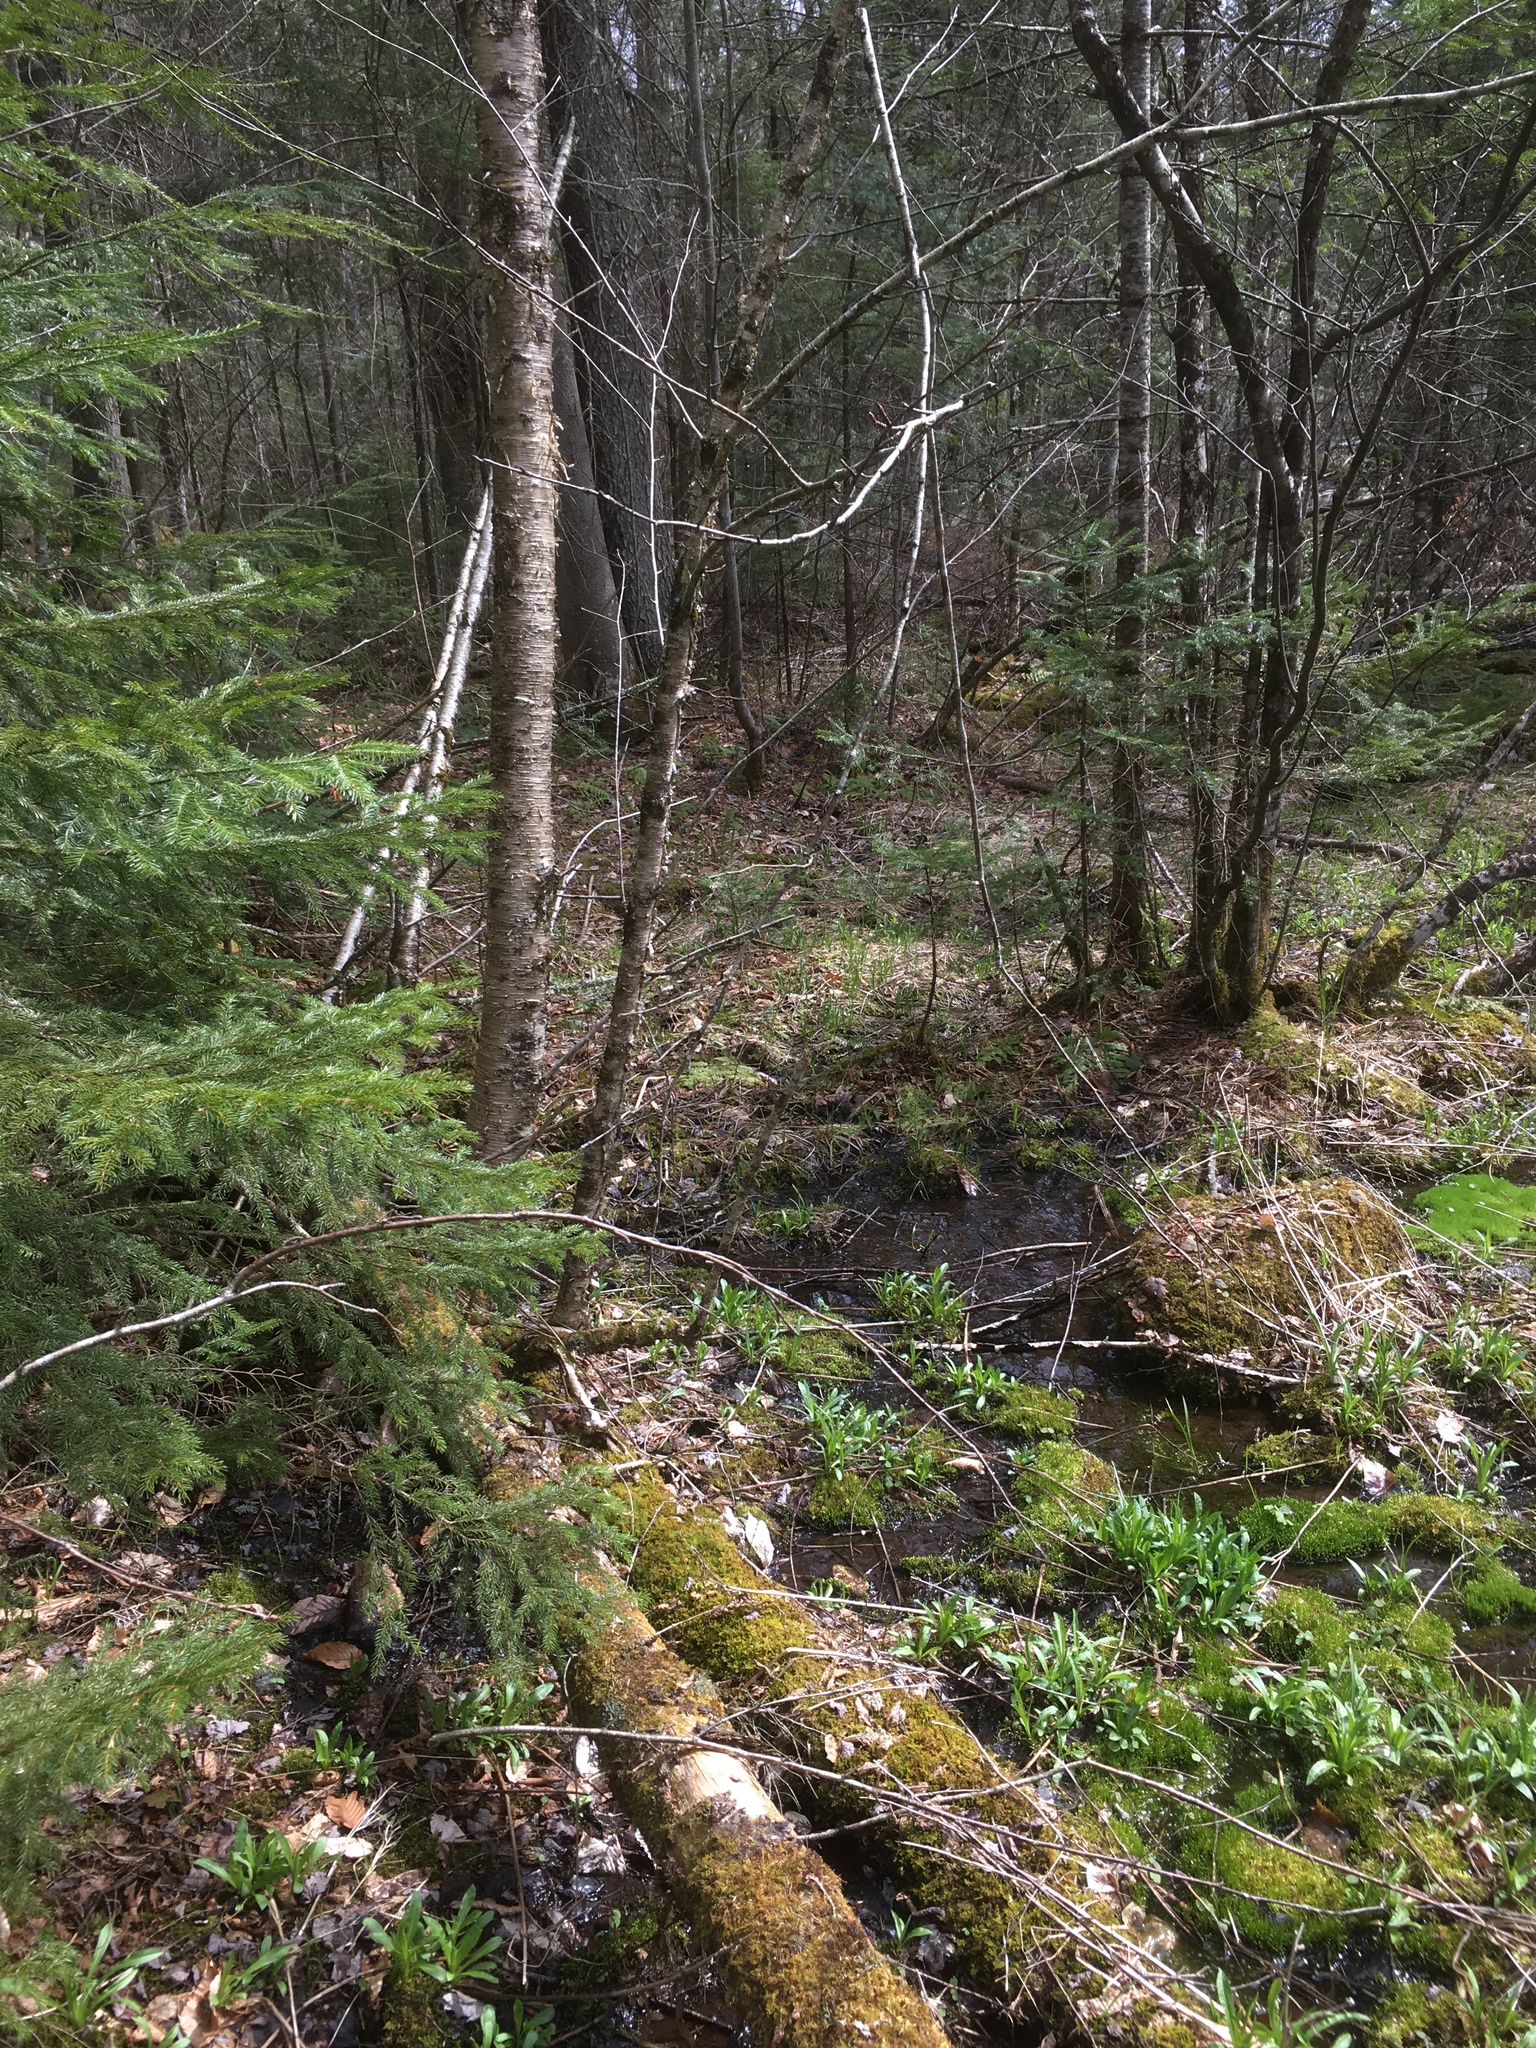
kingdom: Plantae
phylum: Tracheophyta
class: Magnoliopsida
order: Fagales
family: Betulaceae
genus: Betula
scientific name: Betula alleghaniensis
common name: Yellow birch
